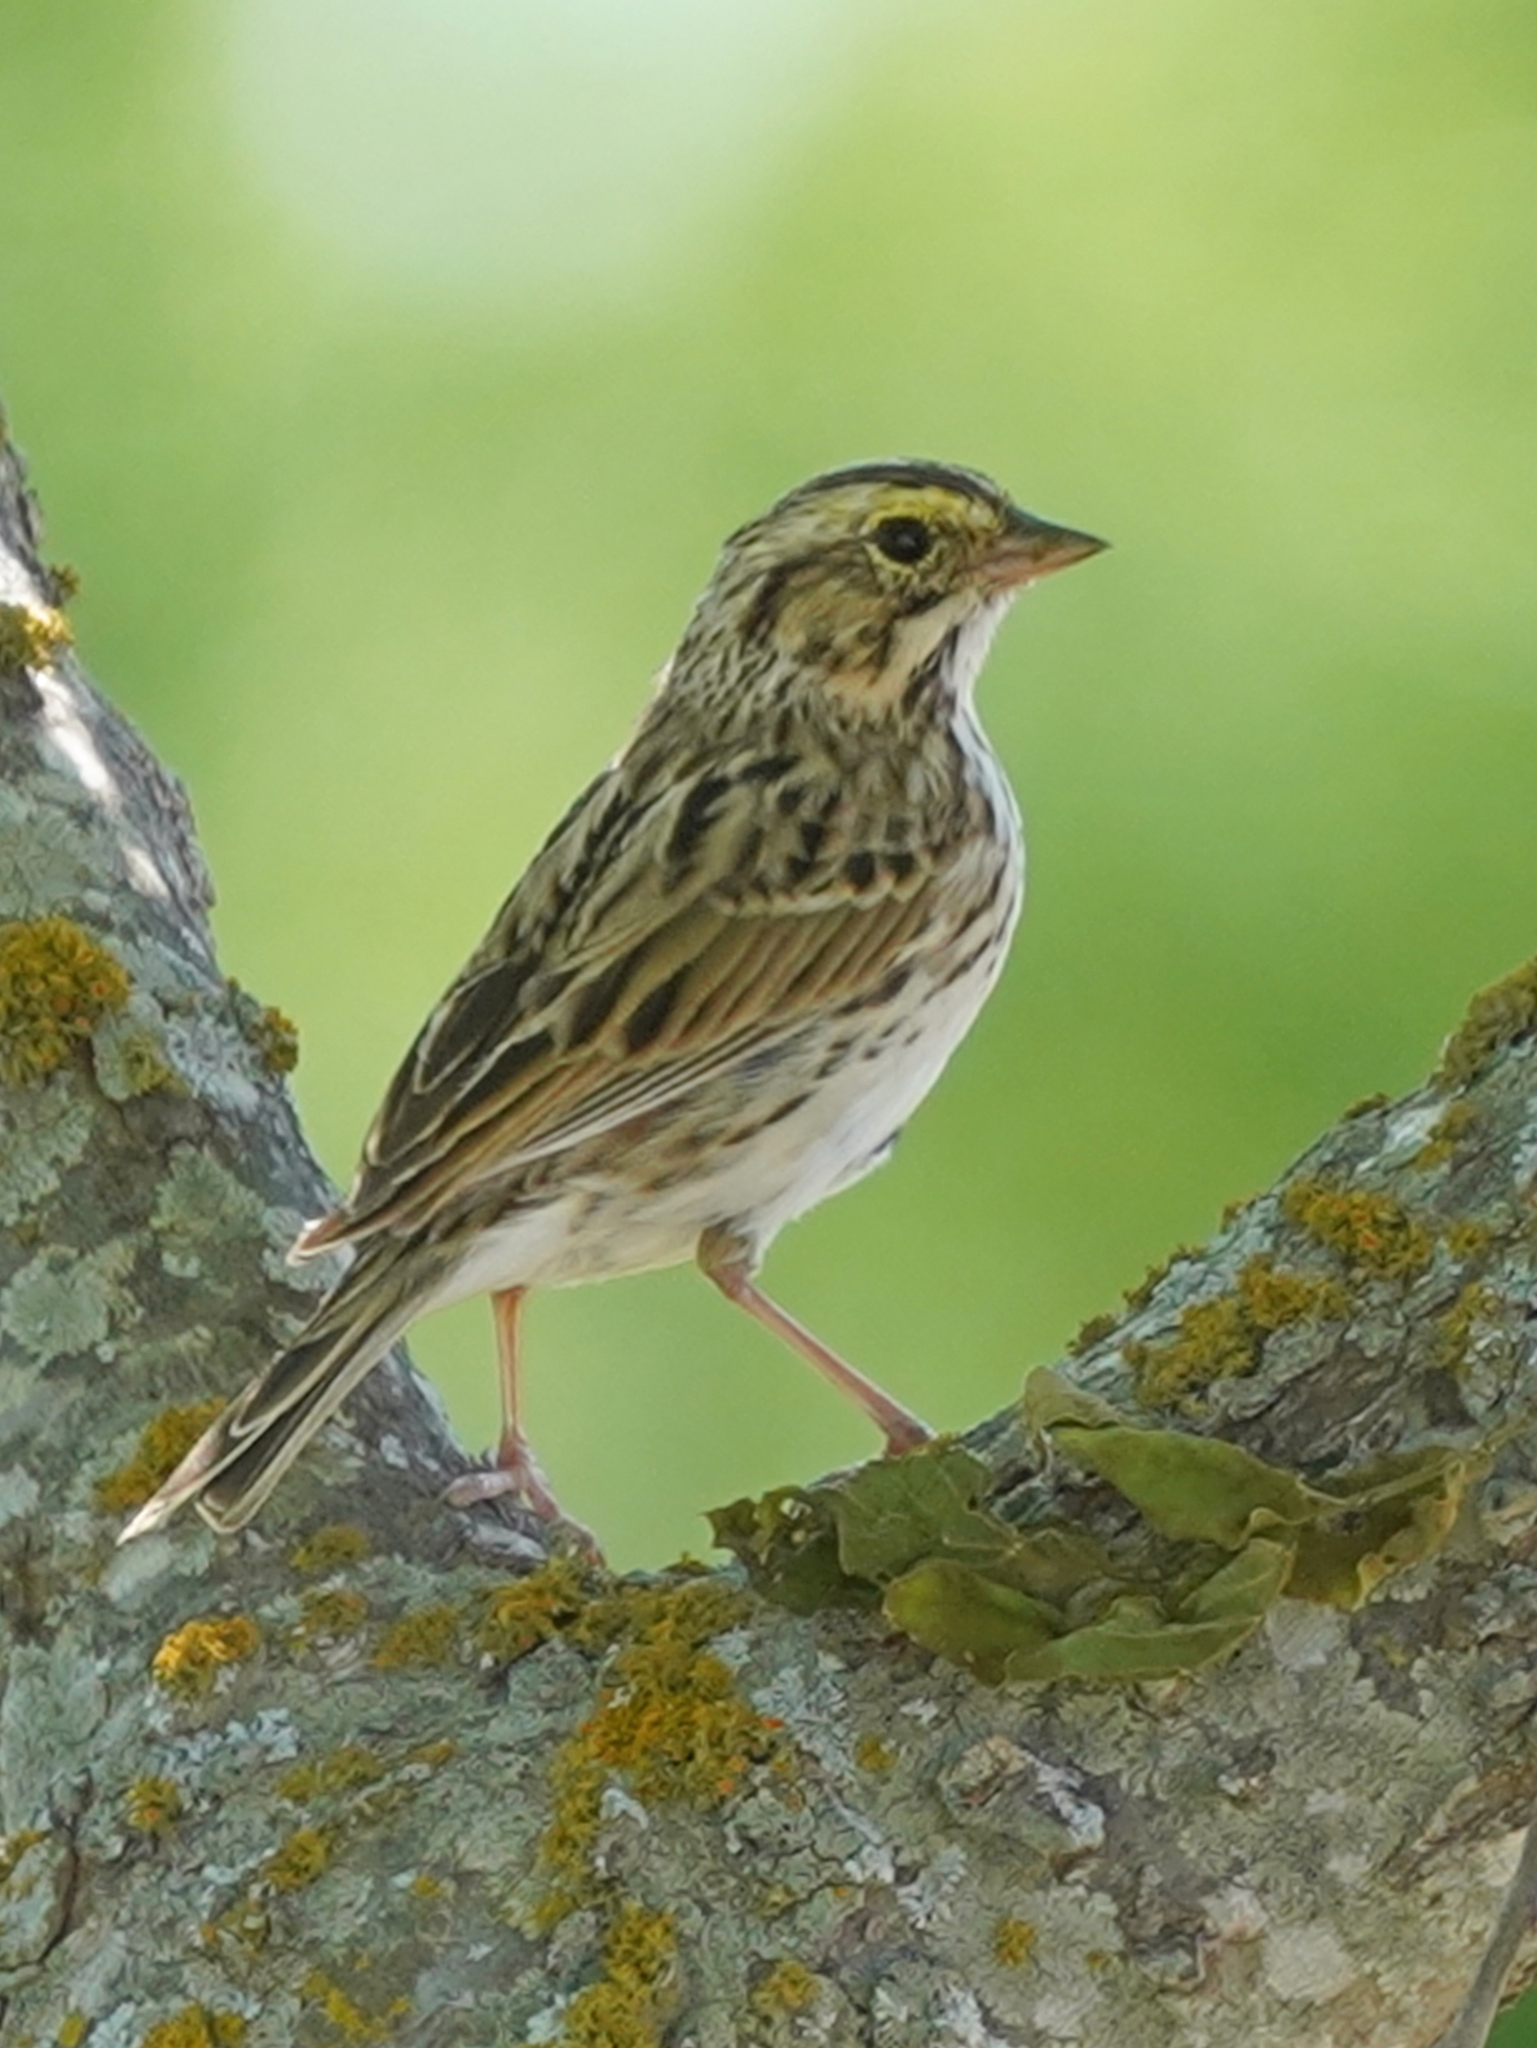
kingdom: Animalia
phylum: Chordata
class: Aves
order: Passeriformes
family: Passerellidae
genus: Passerculus
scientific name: Passerculus sandwichensis
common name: Savannah sparrow
